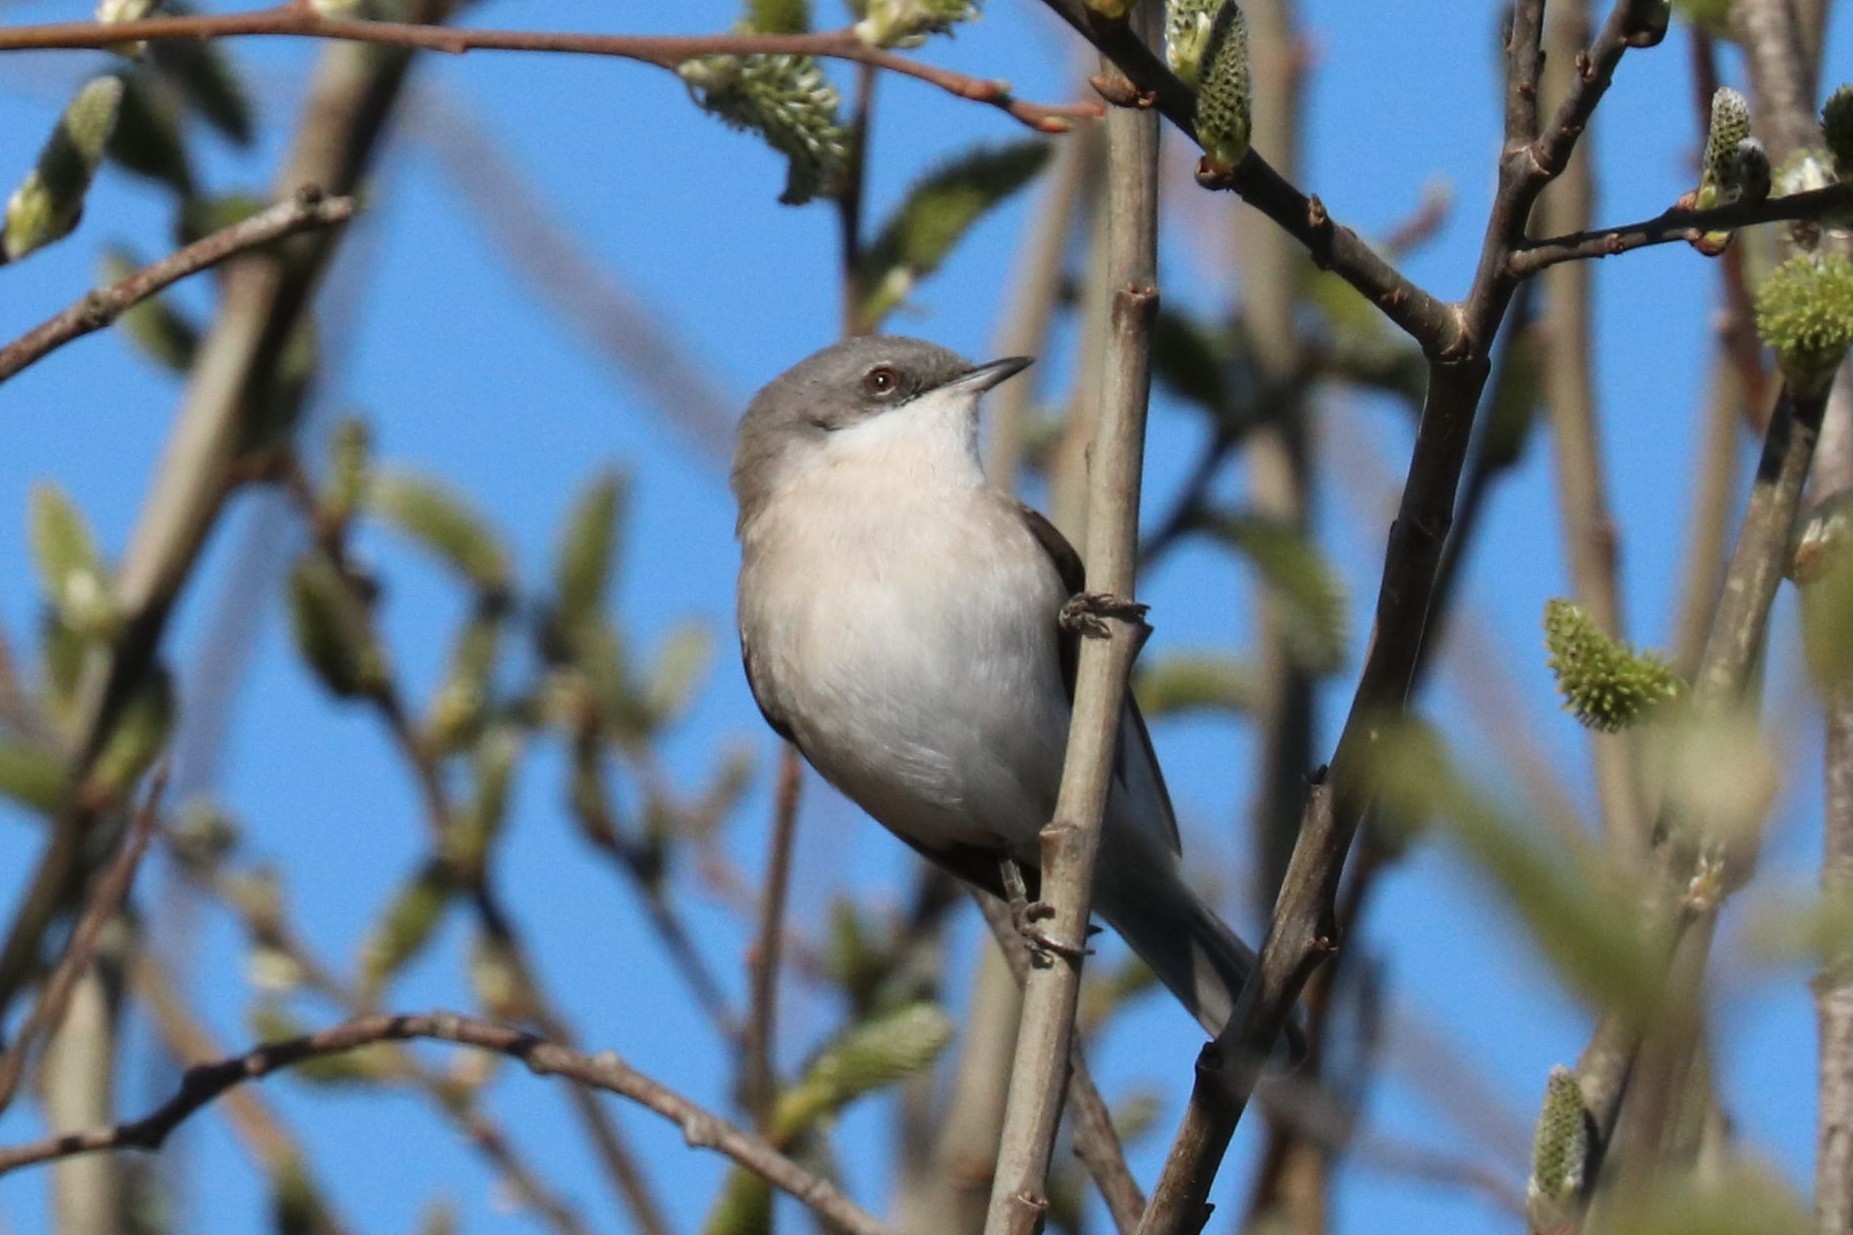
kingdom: Animalia
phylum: Chordata
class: Aves
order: Passeriformes
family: Sylviidae
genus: Sylvia
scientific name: Sylvia curruca
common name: Lesser whitethroat
